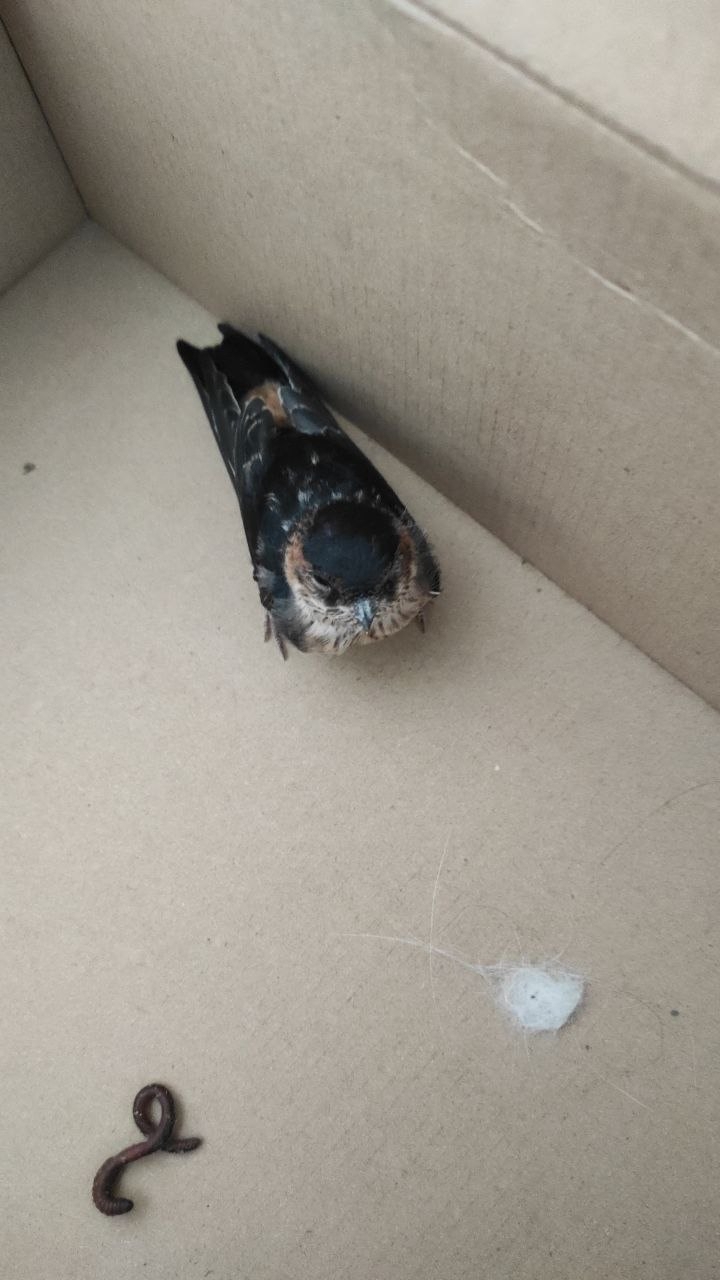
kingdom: Animalia
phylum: Chordata
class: Aves
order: Passeriformes
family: Hirundinidae
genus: Cecropis
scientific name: Cecropis daurica
